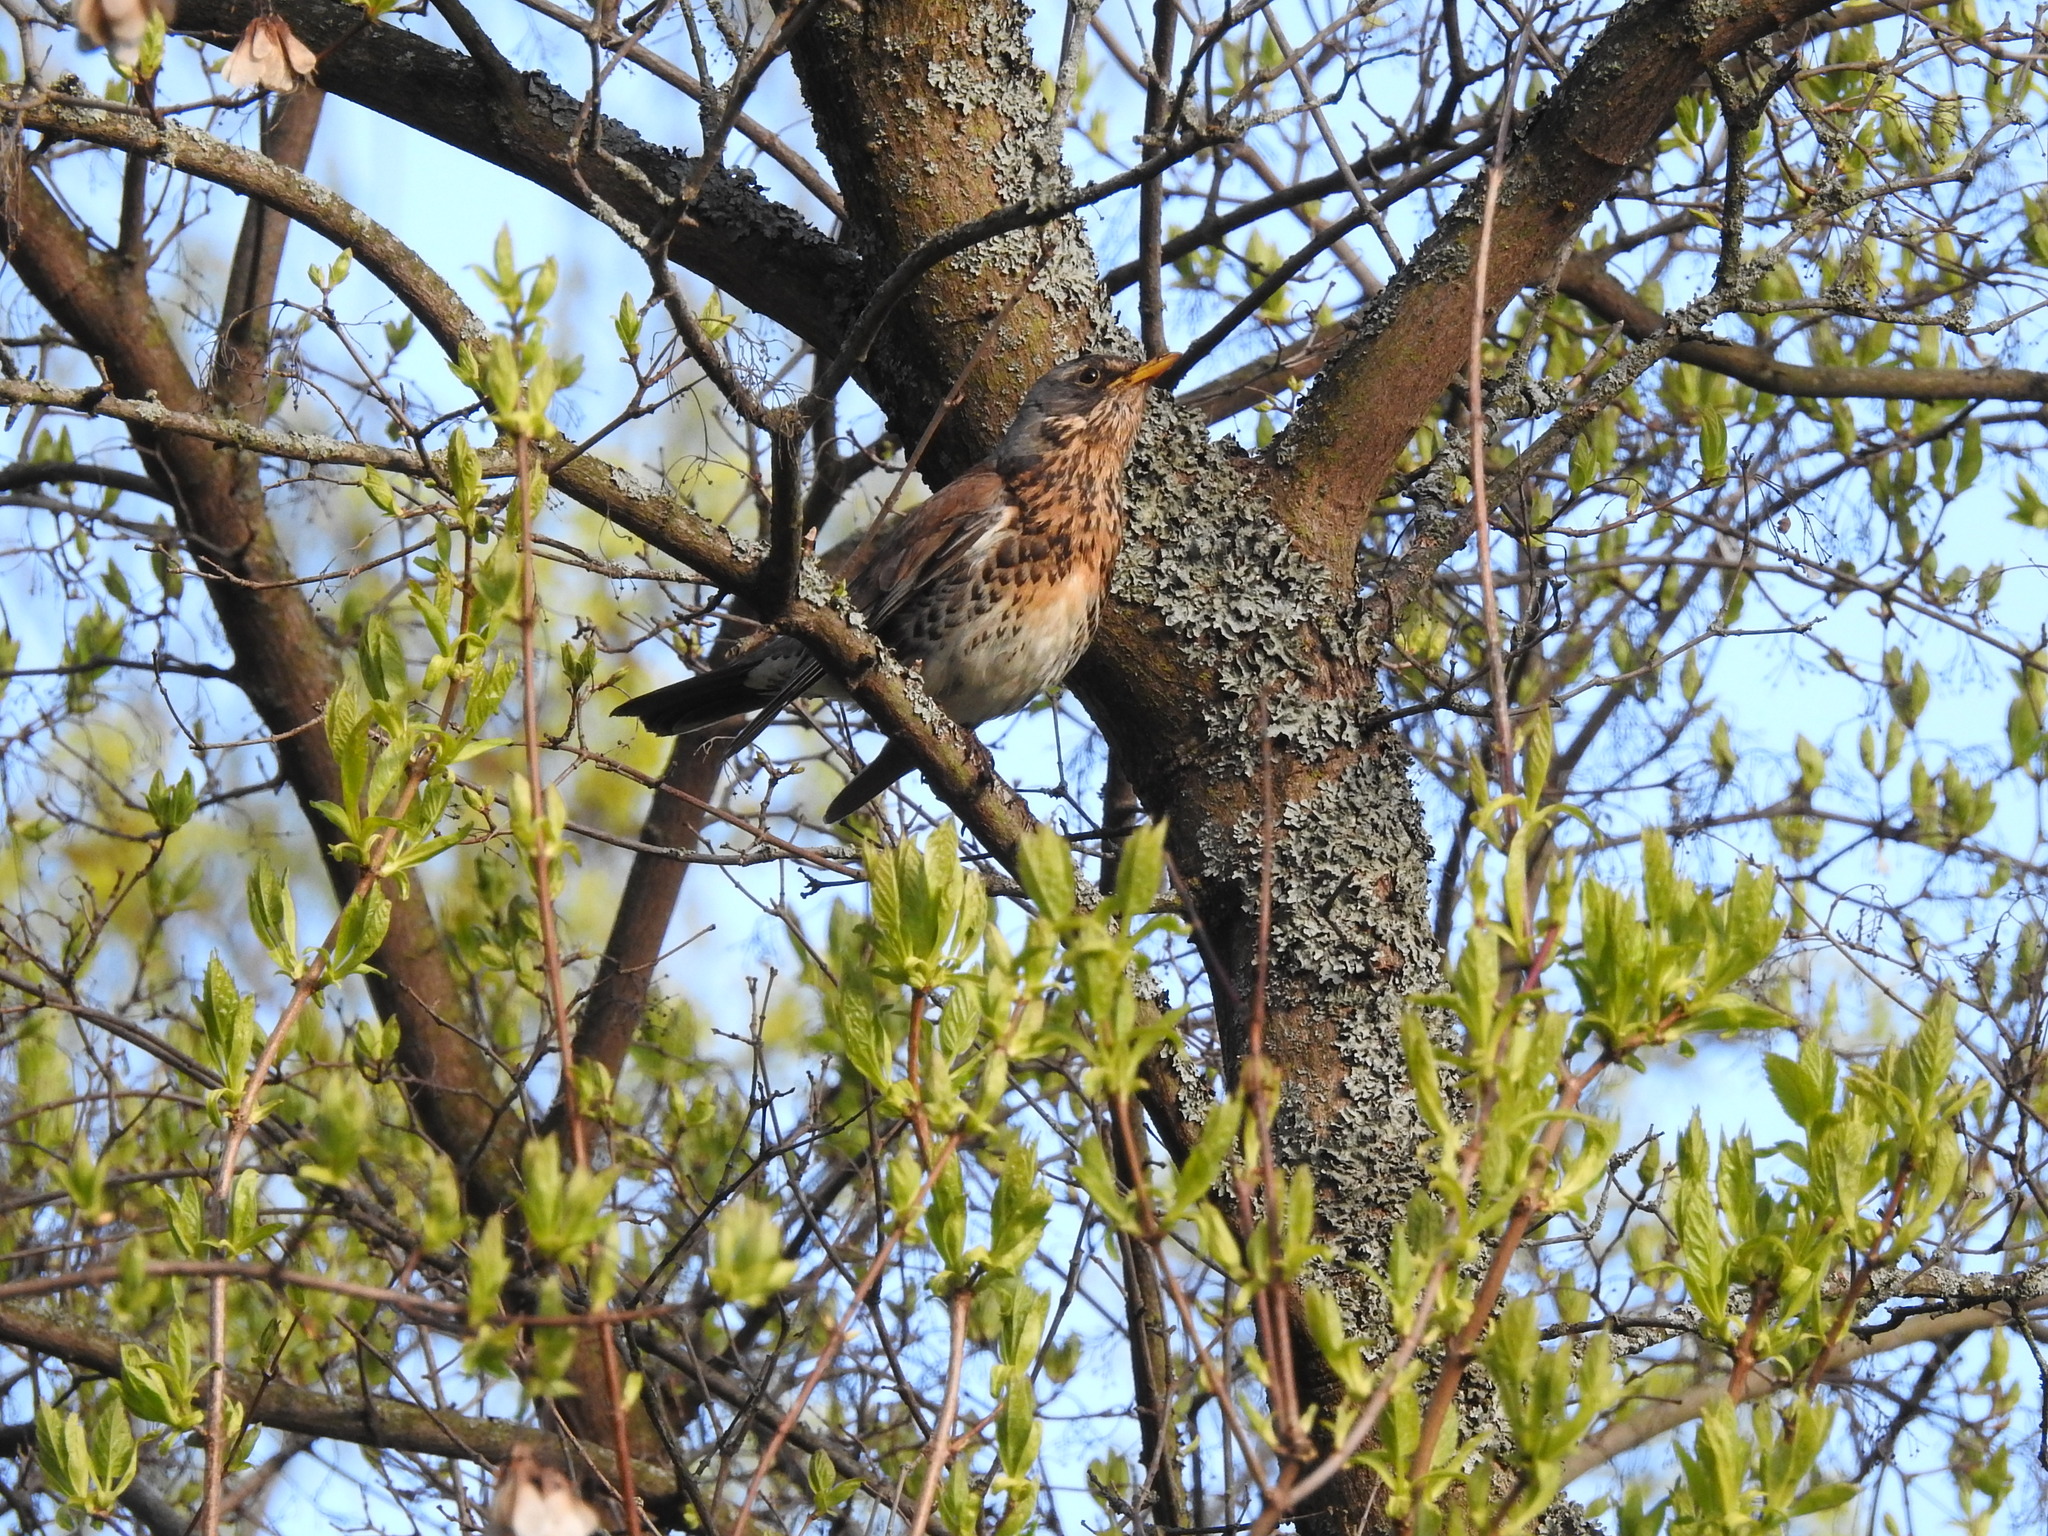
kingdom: Animalia
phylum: Chordata
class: Aves
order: Passeriformes
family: Turdidae
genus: Turdus
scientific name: Turdus pilaris
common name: Fieldfare
